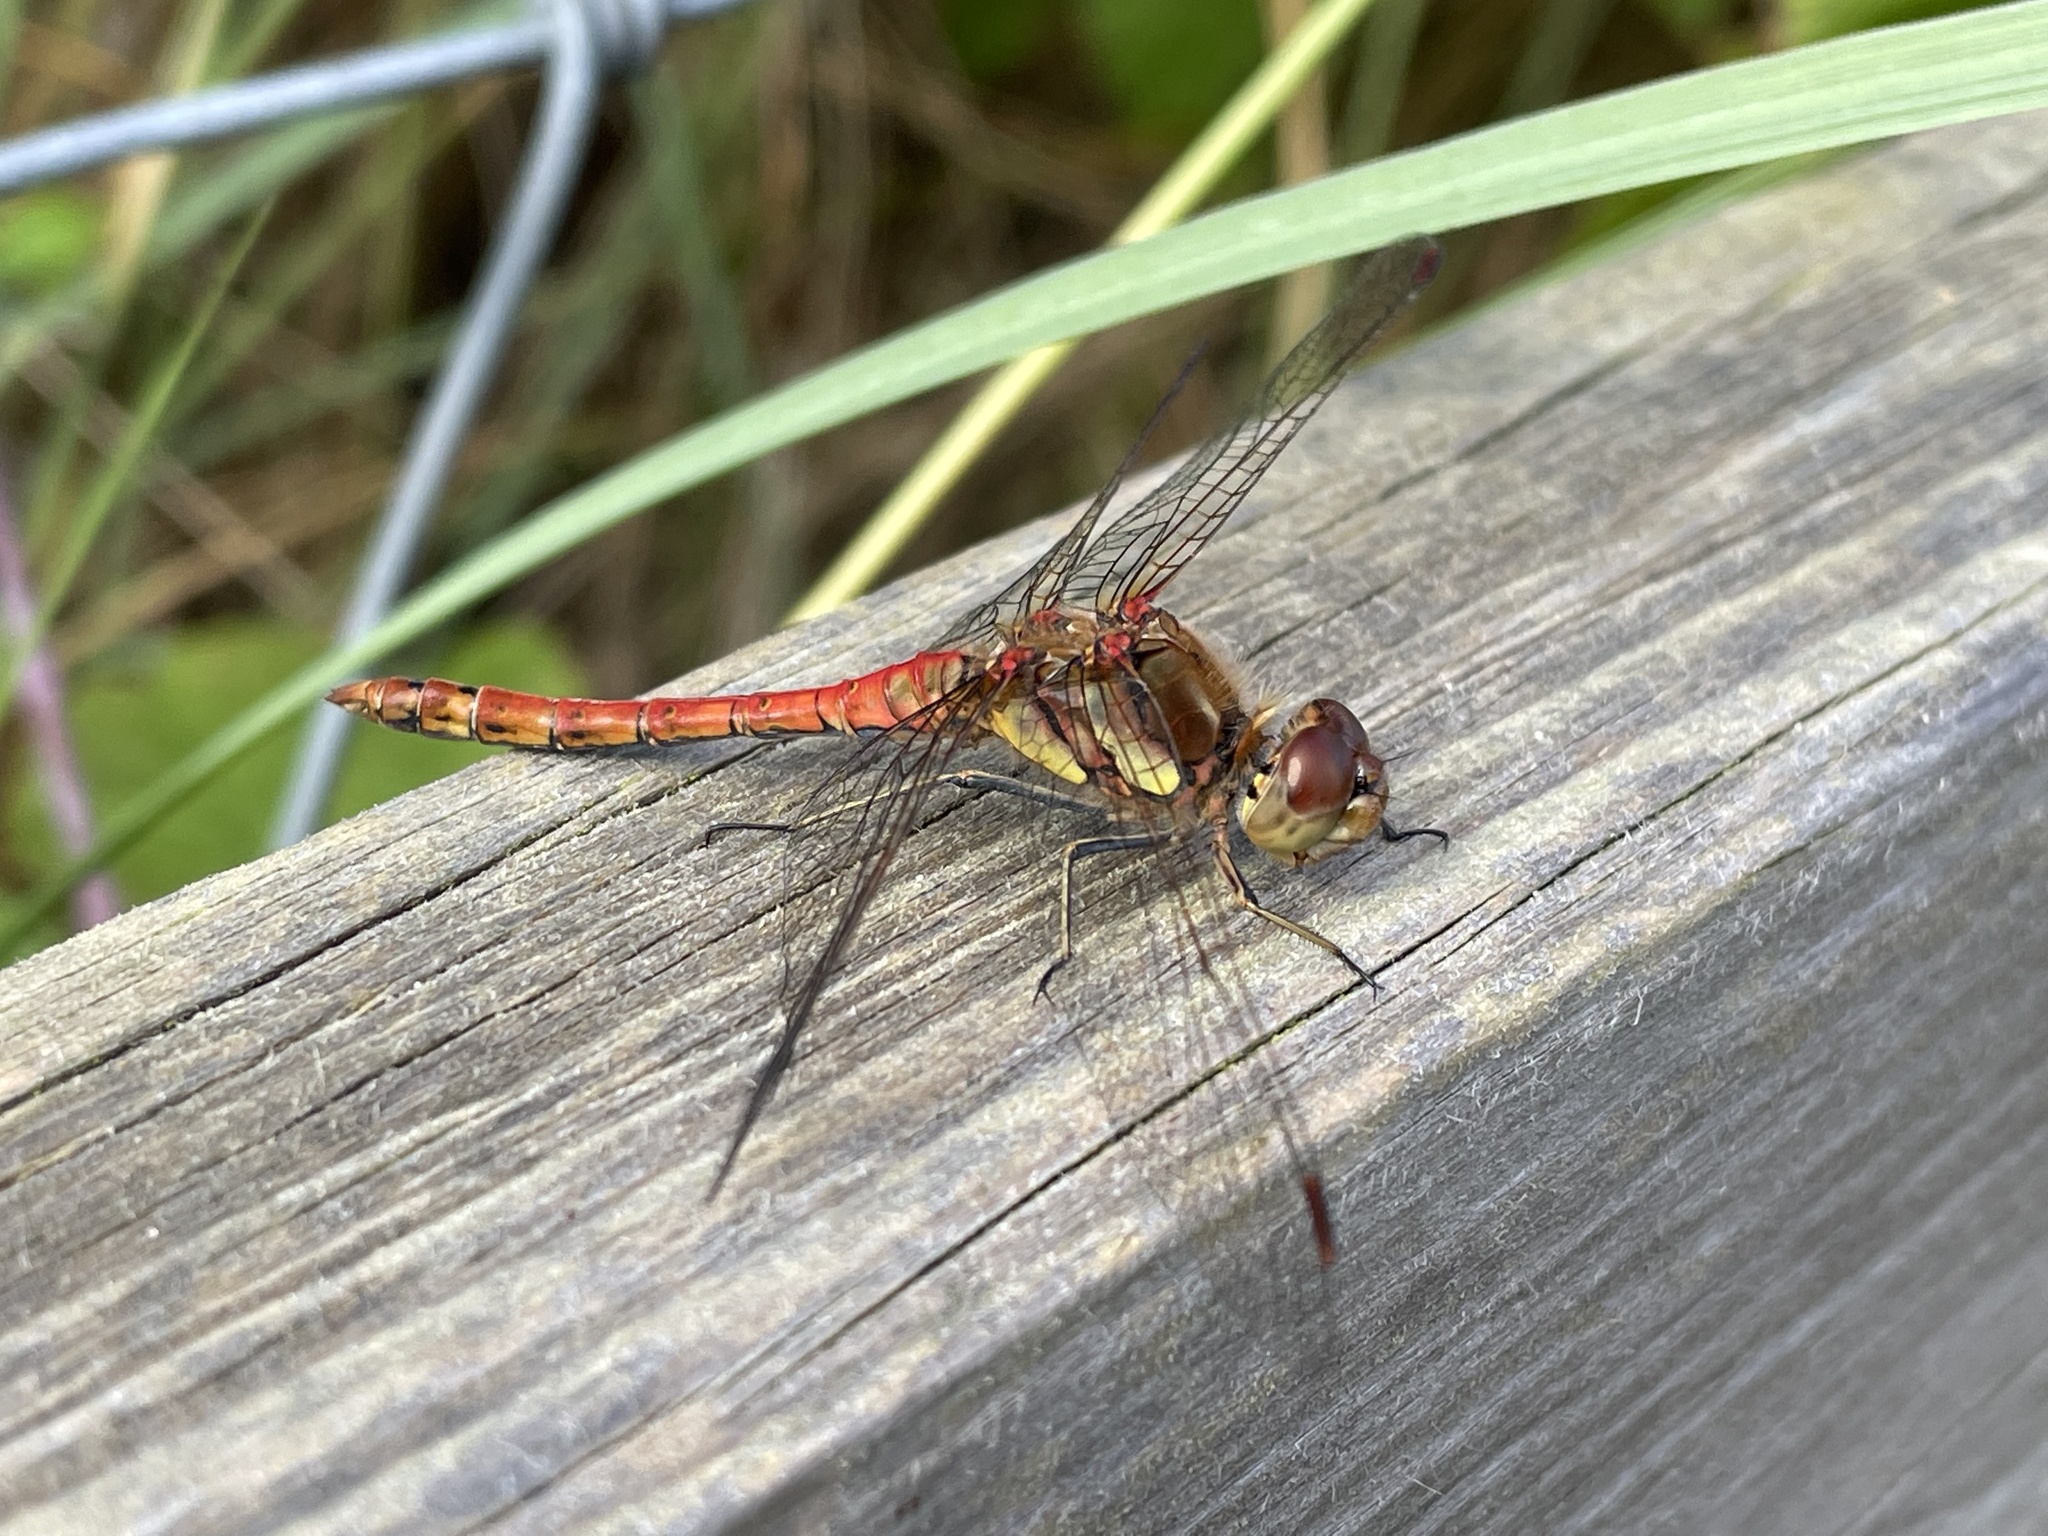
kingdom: Animalia
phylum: Arthropoda
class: Insecta
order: Odonata
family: Libellulidae
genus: Sympetrum
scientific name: Sympetrum striolatum
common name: Common darter
